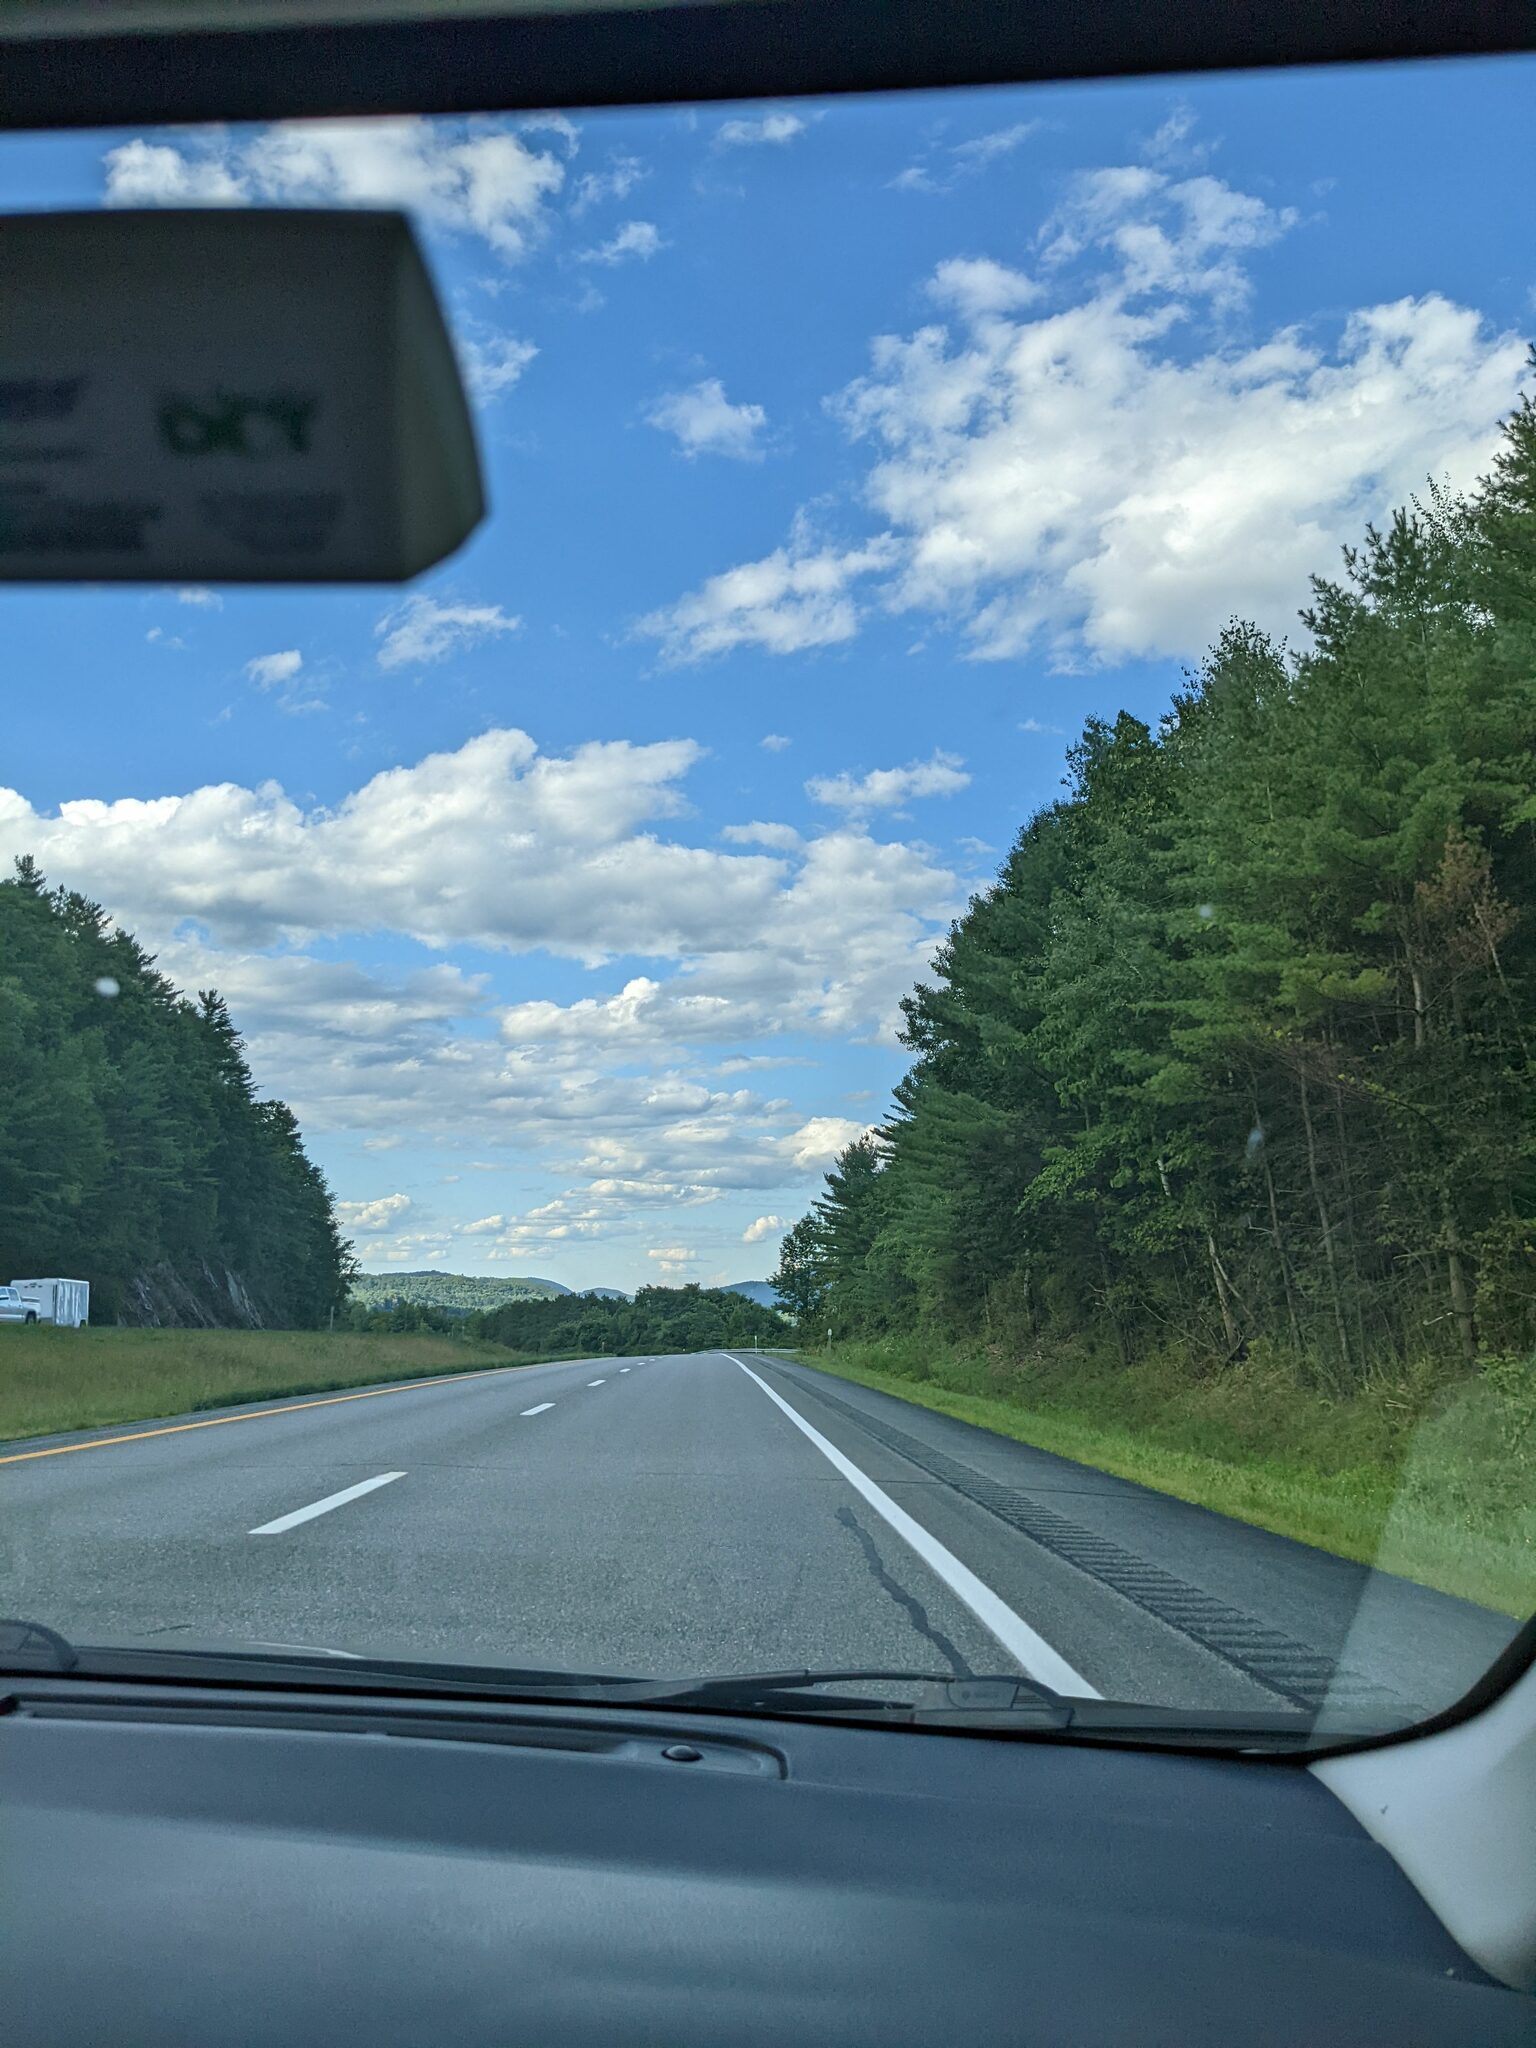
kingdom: Plantae
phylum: Tracheophyta
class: Pinopsida
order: Pinales
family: Pinaceae
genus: Pinus
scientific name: Pinus strobus
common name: Weymouth pine
